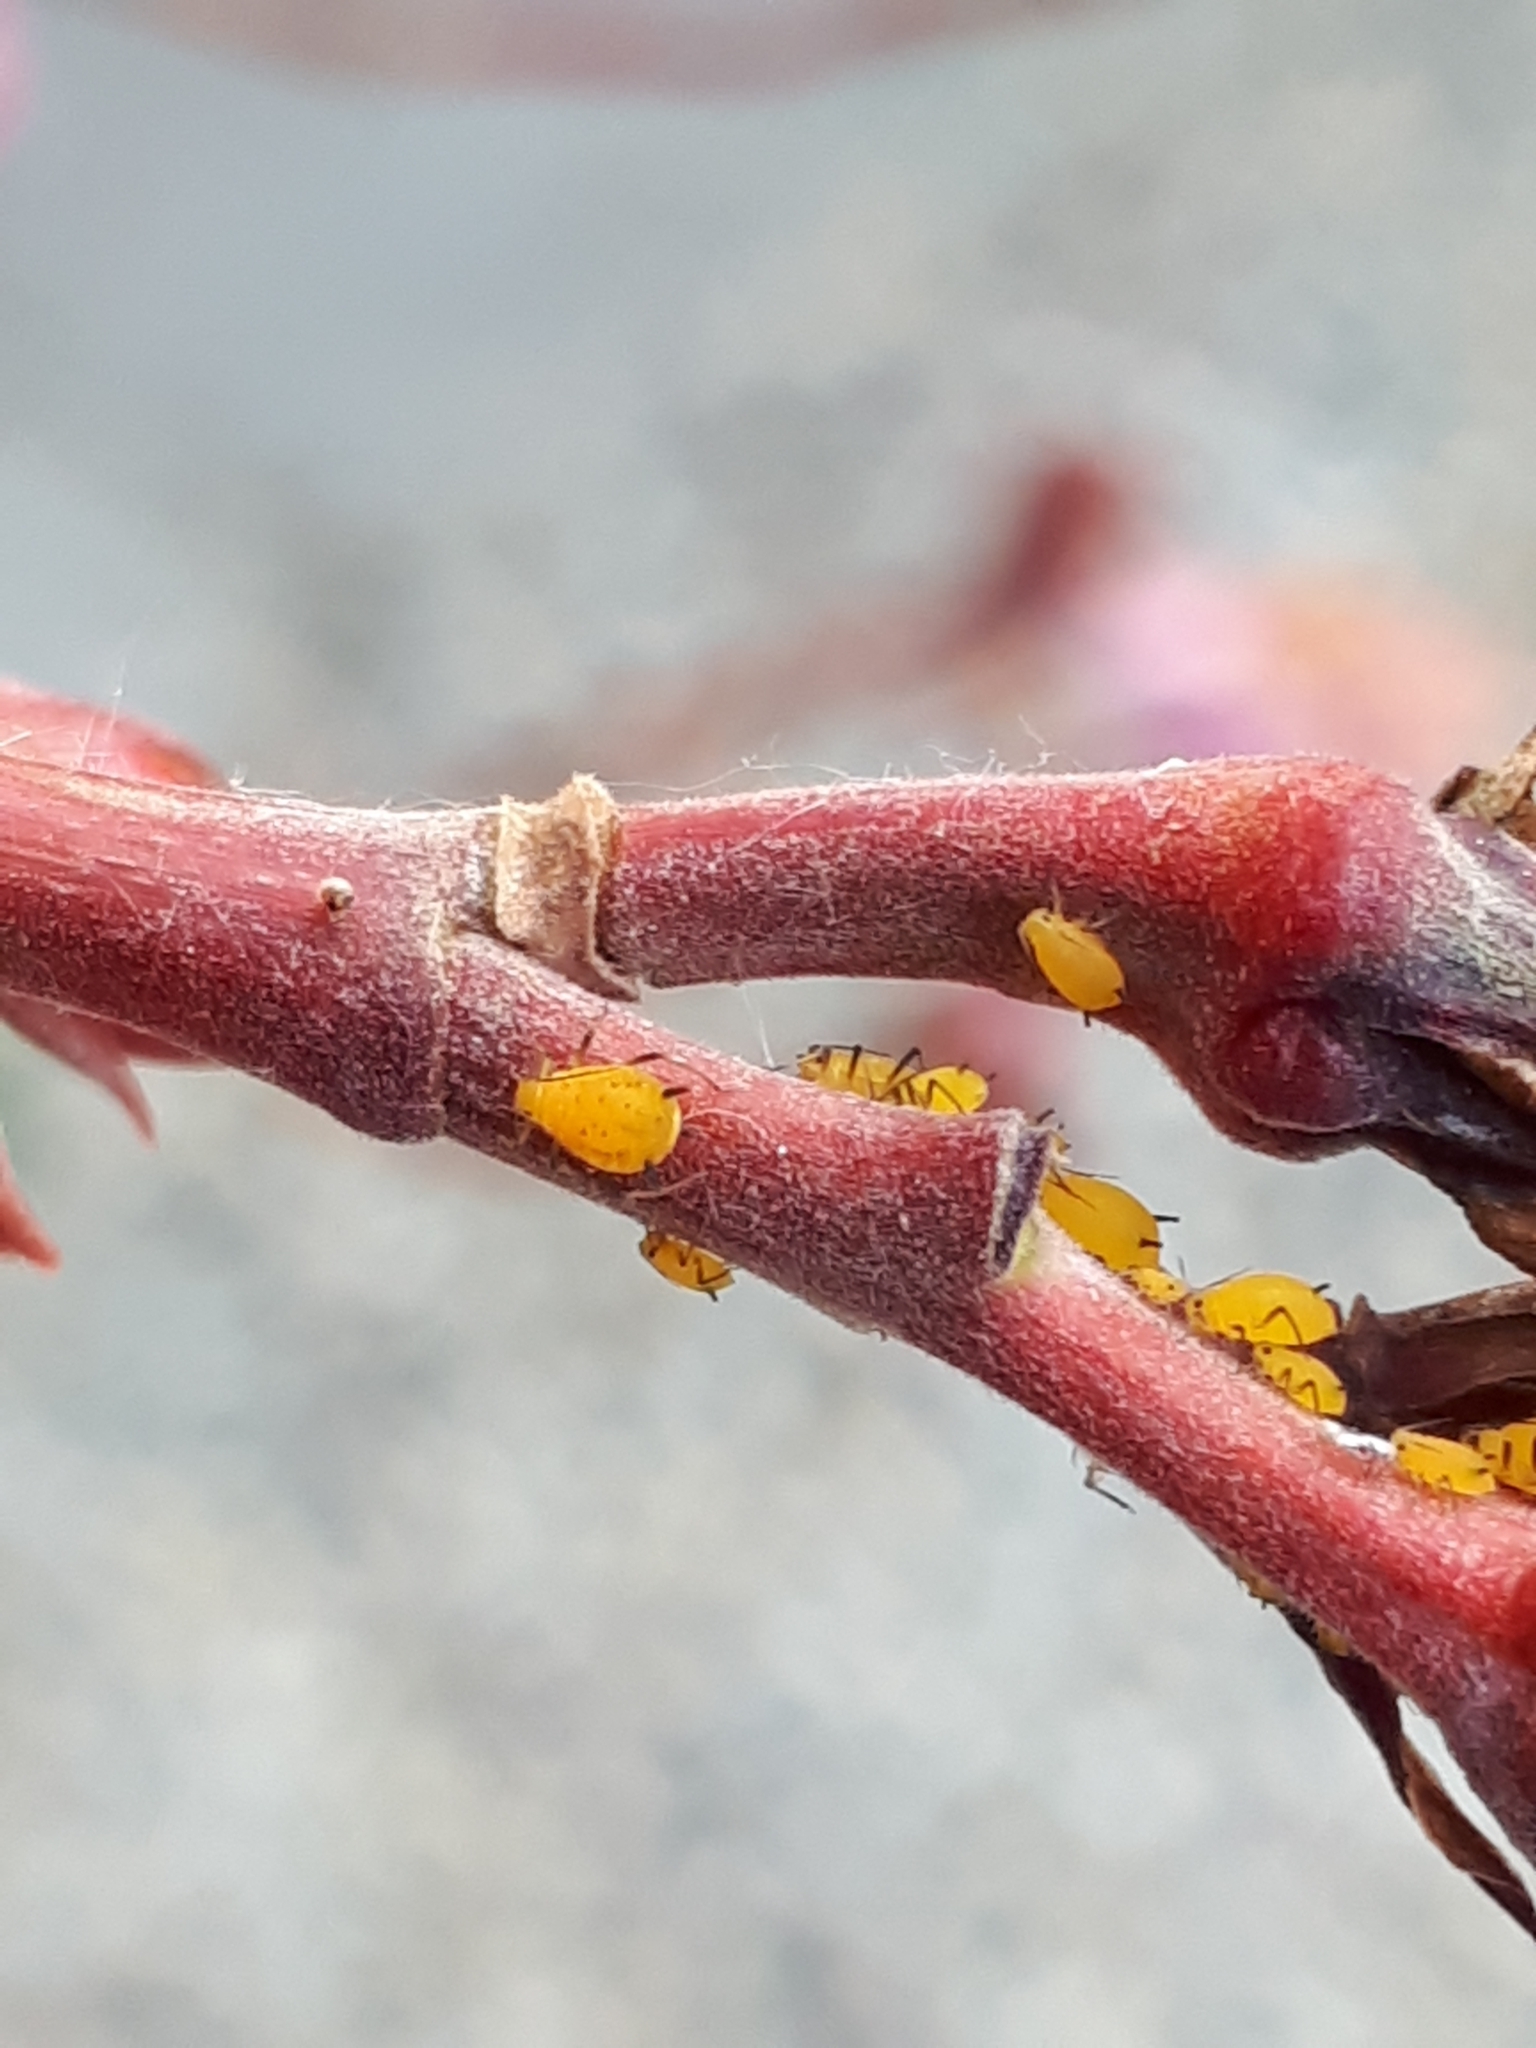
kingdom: Animalia
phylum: Arthropoda
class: Insecta
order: Hemiptera
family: Aphididae
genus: Aphis
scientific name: Aphis nerii
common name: Oleander aphid
